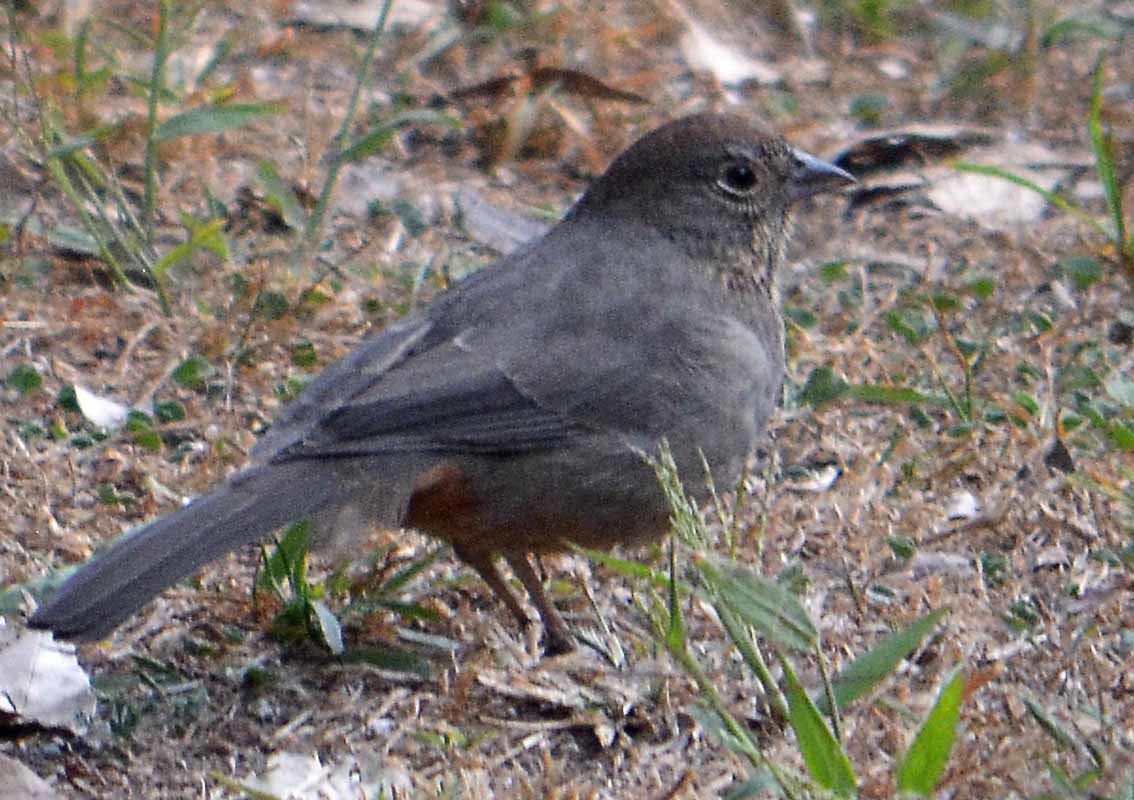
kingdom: Animalia
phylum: Chordata
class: Aves
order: Passeriformes
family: Passerellidae
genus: Melozone
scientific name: Melozone fusca
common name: Canyon towhee
